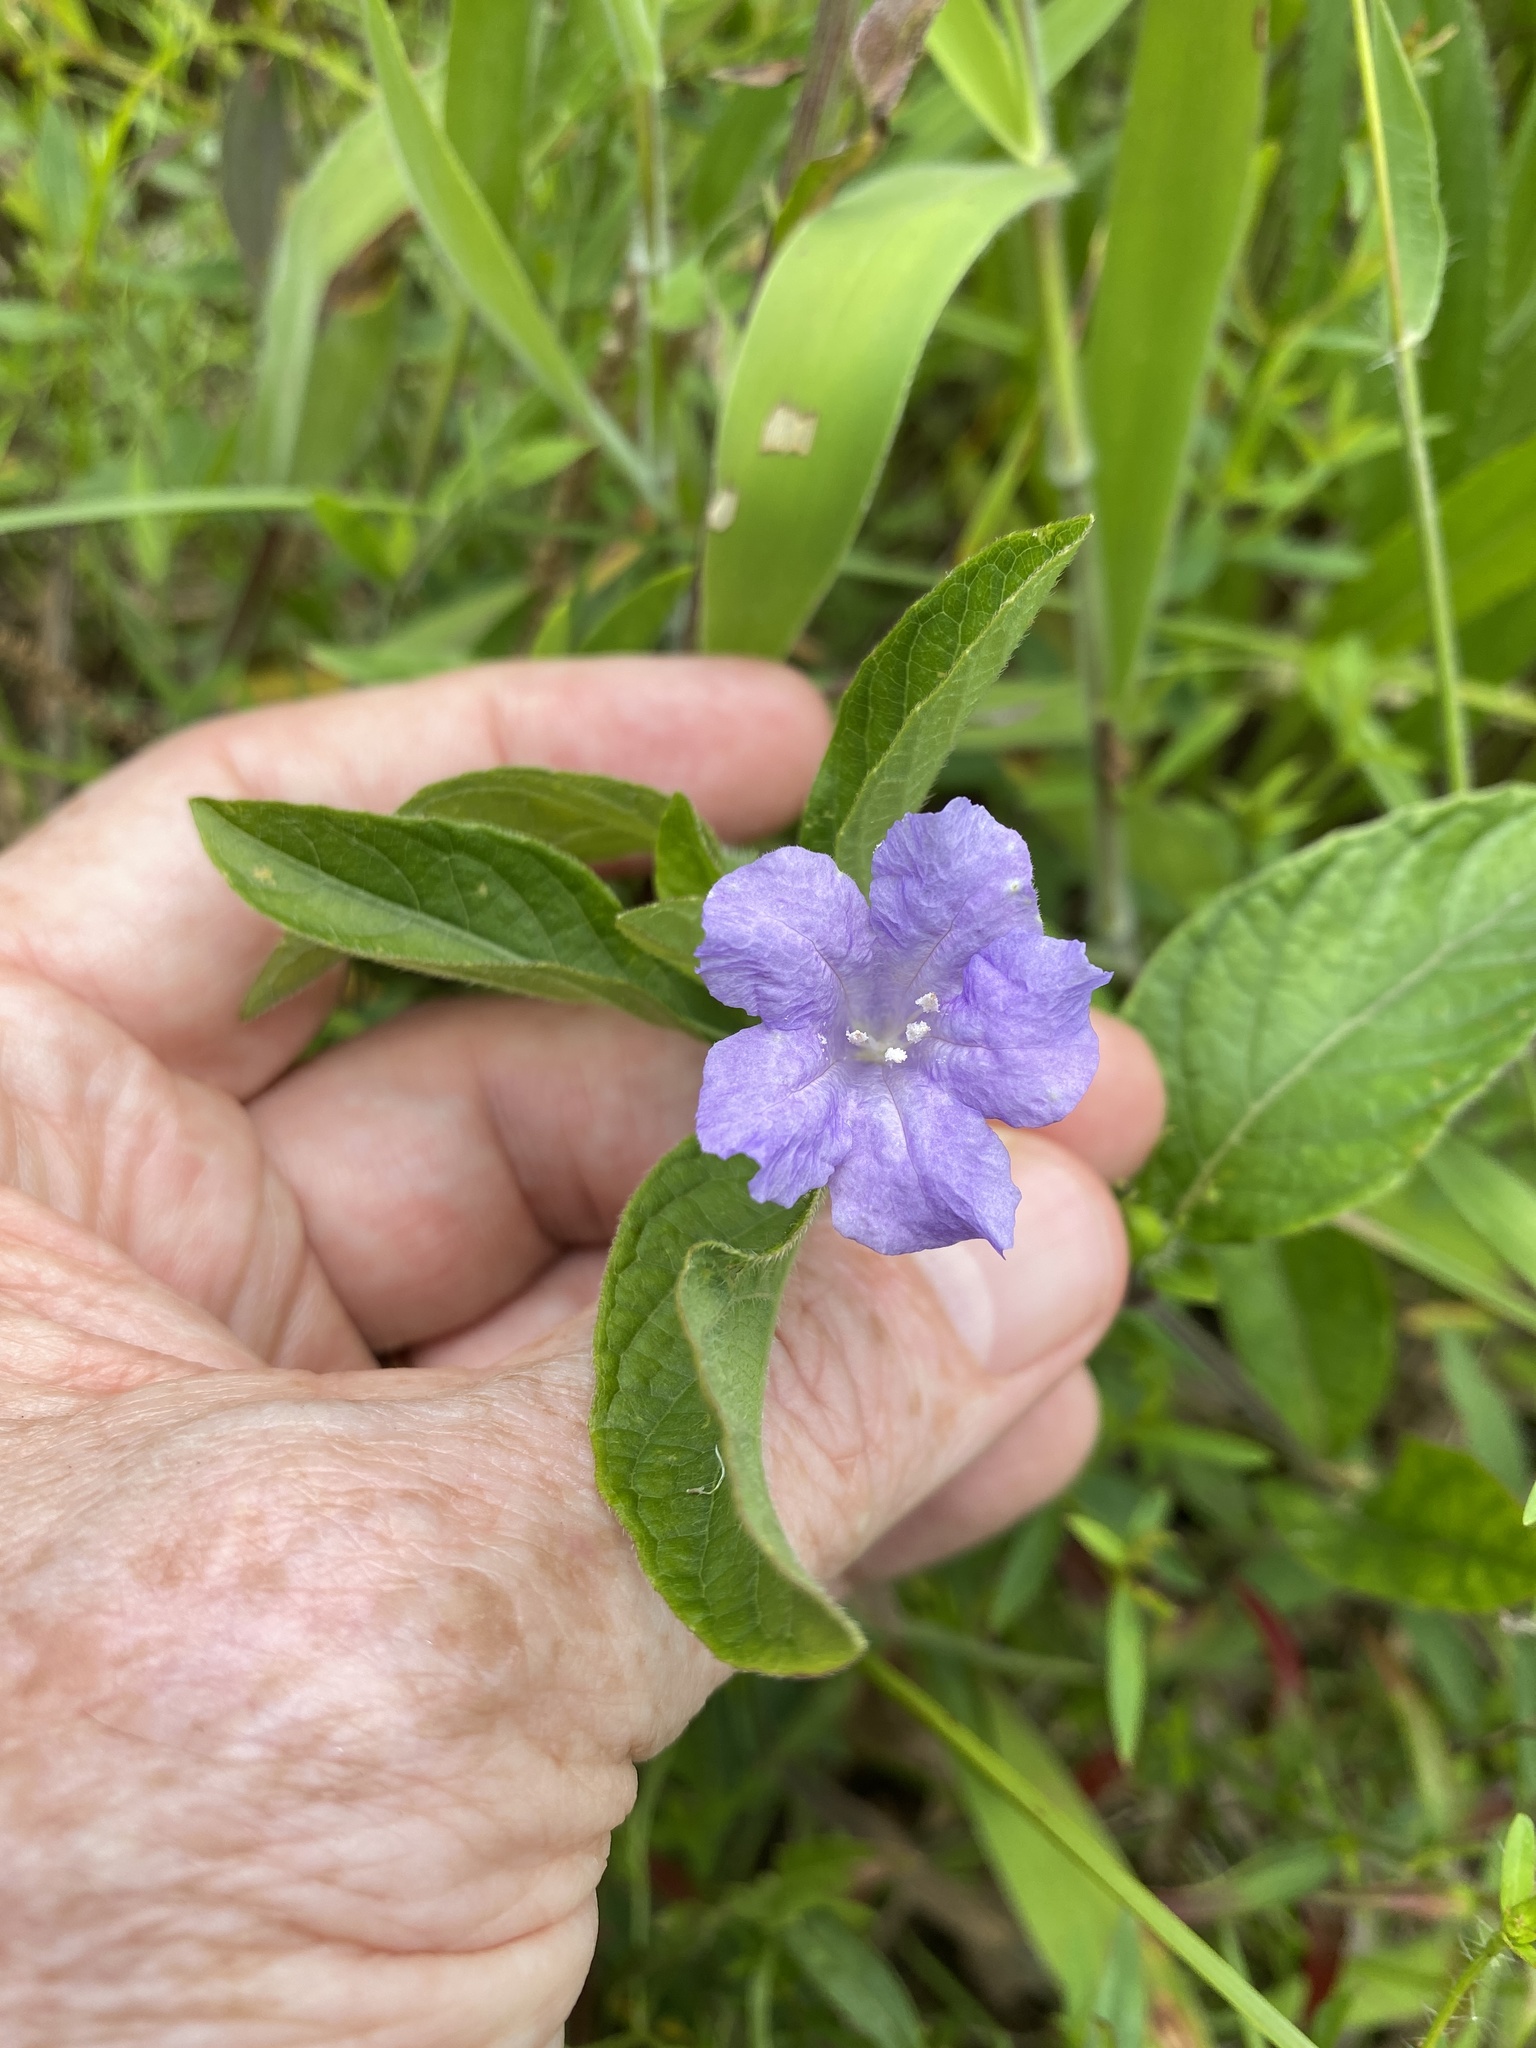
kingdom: Plantae
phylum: Tracheophyta
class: Magnoliopsida
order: Lamiales
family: Acanthaceae
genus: Ruellia
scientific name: Ruellia caroliniensis
